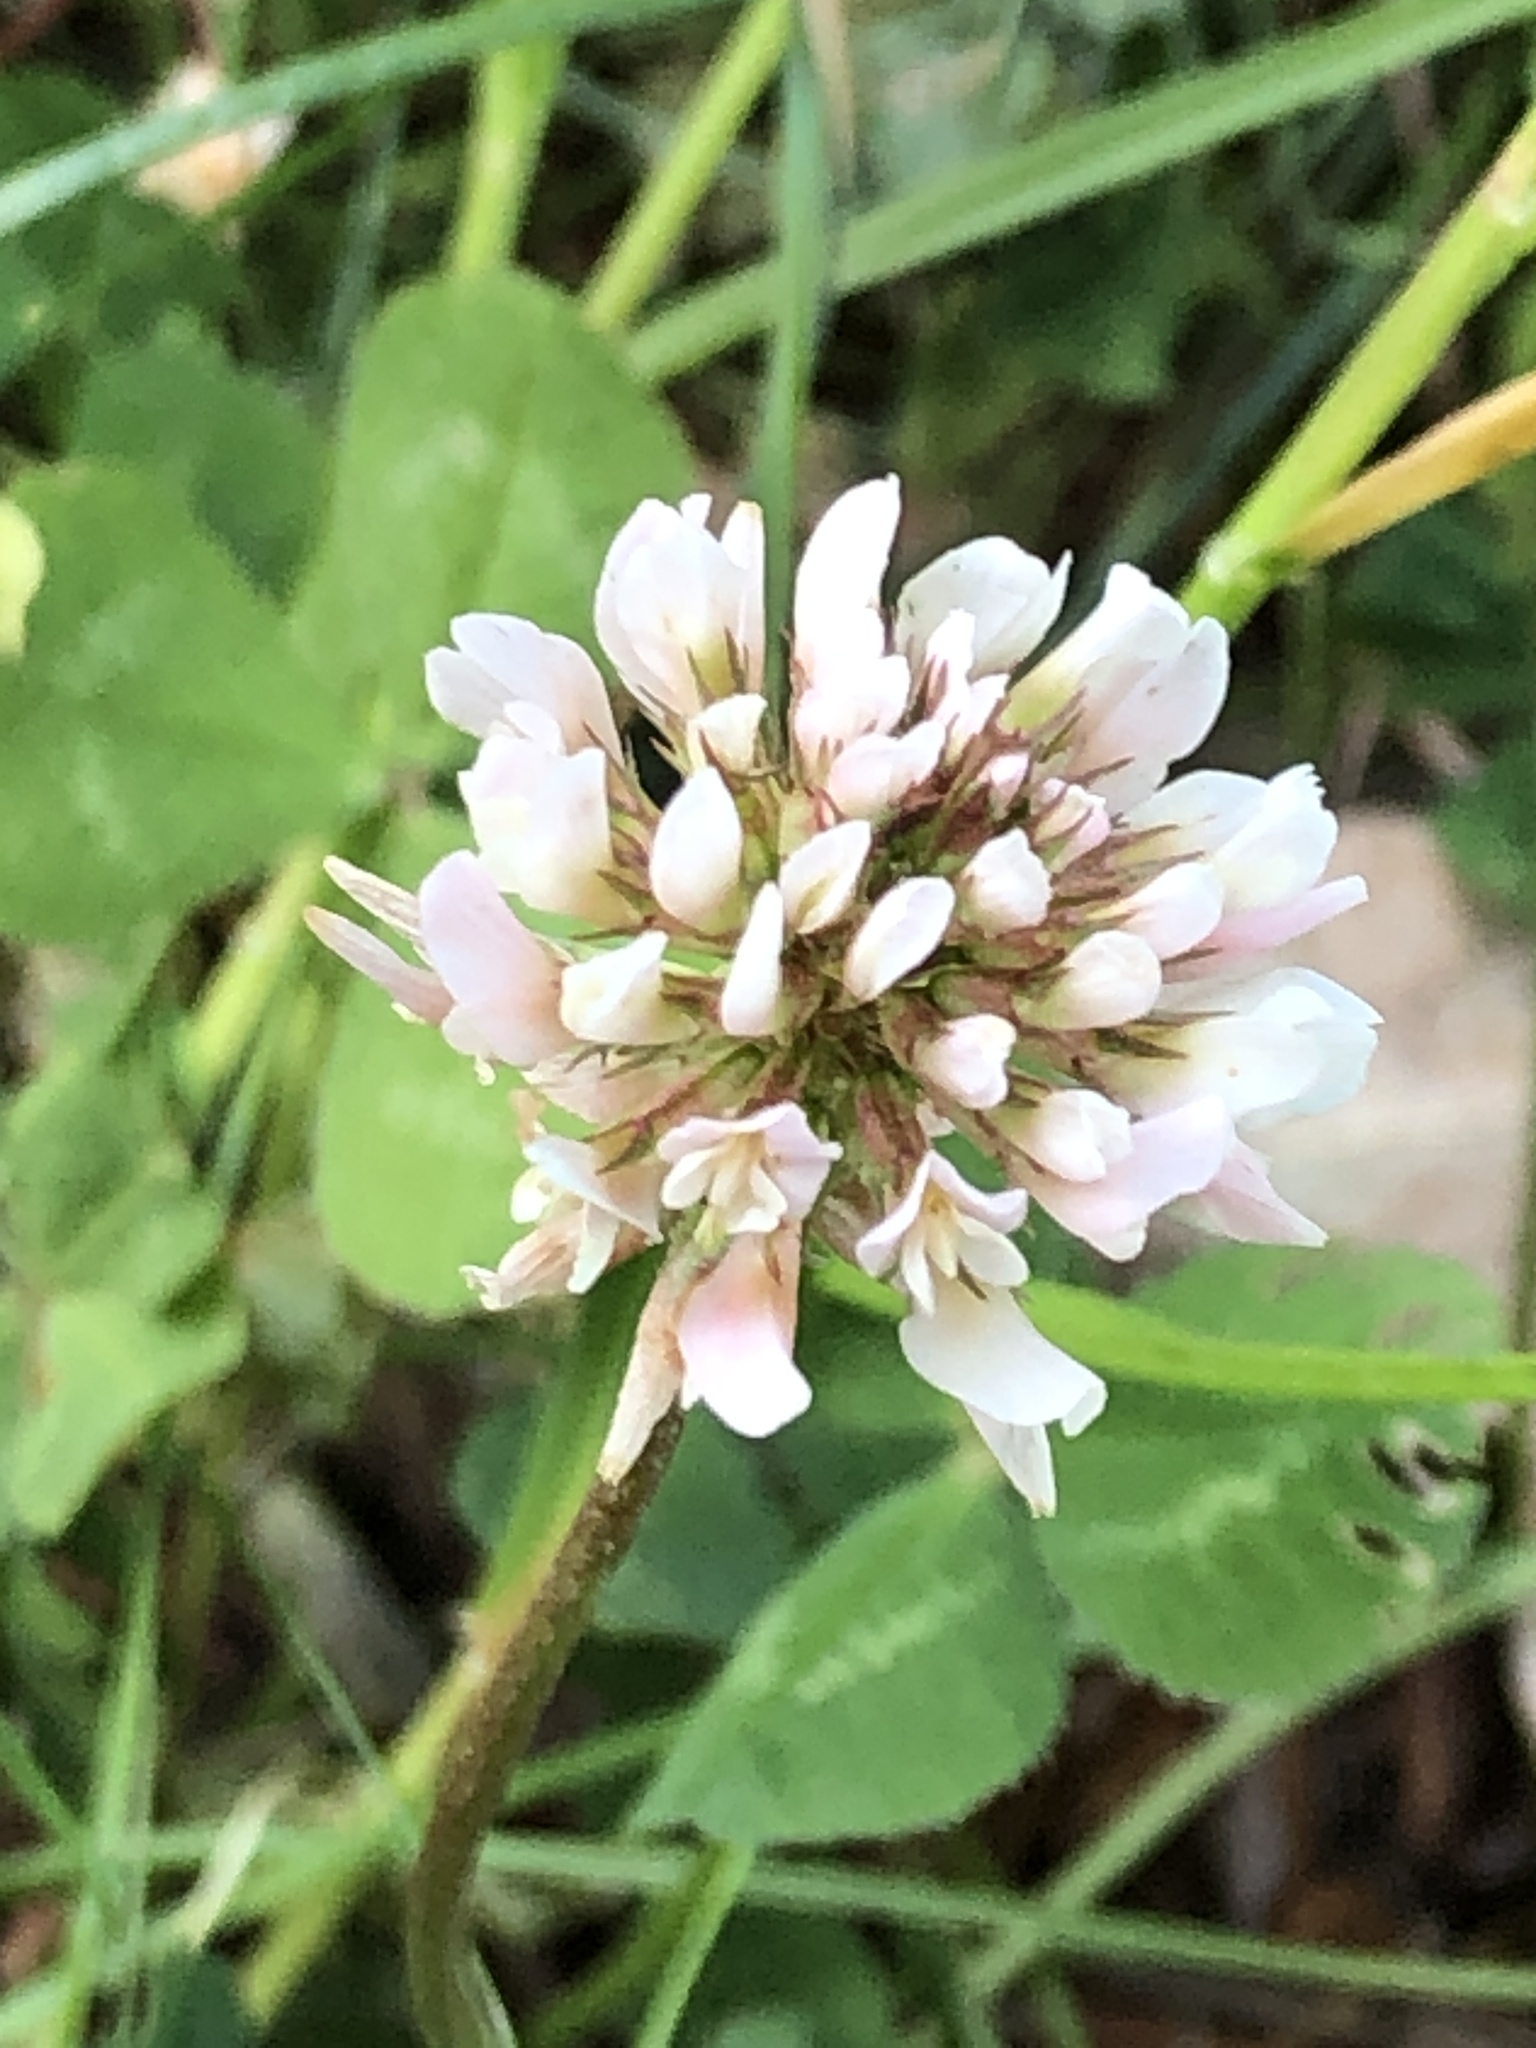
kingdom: Plantae
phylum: Tracheophyta
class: Magnoliopsida
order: Fabales
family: Fabaceae
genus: Trifolium
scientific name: Trifolium repens
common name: White clover
